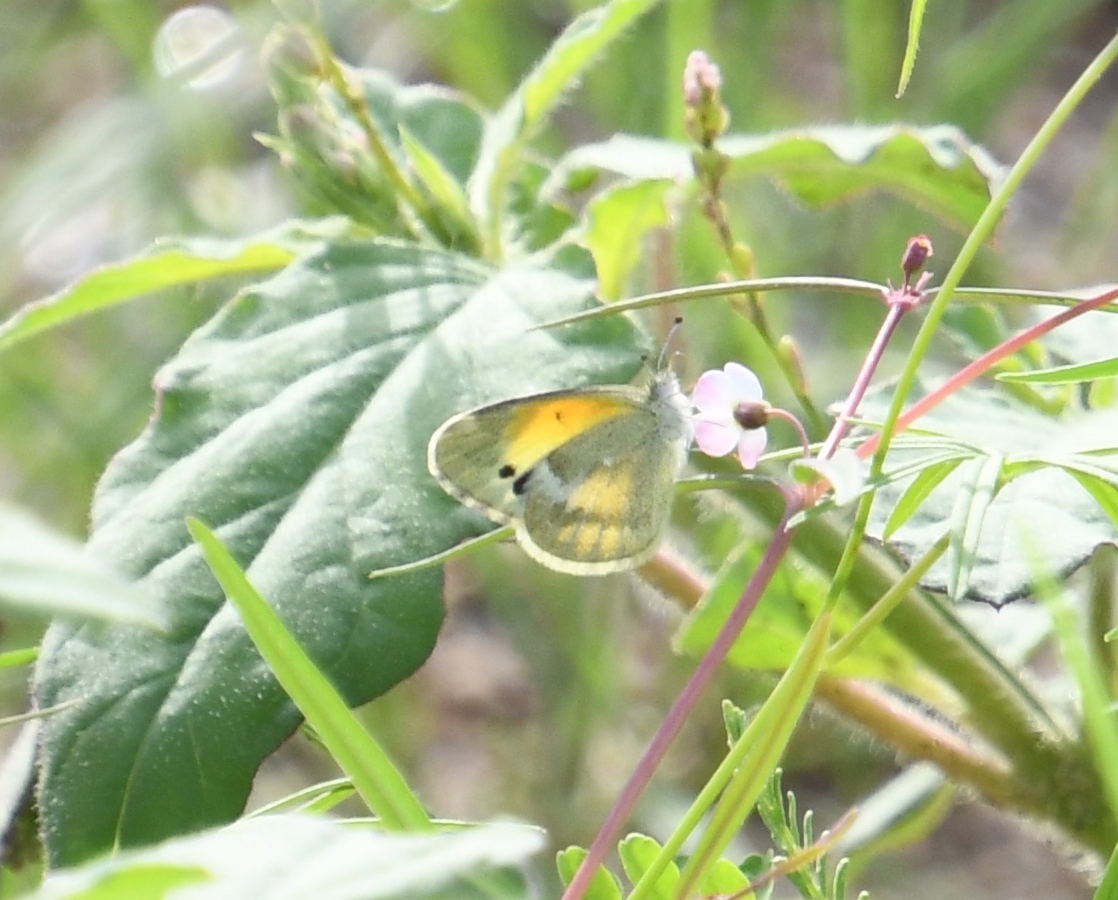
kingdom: Animalia
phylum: Arthropoda
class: Insecta
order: Lepidoptera
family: Pieridae
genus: Nathalis
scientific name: Nathalis iole
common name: Dainty sulphur
